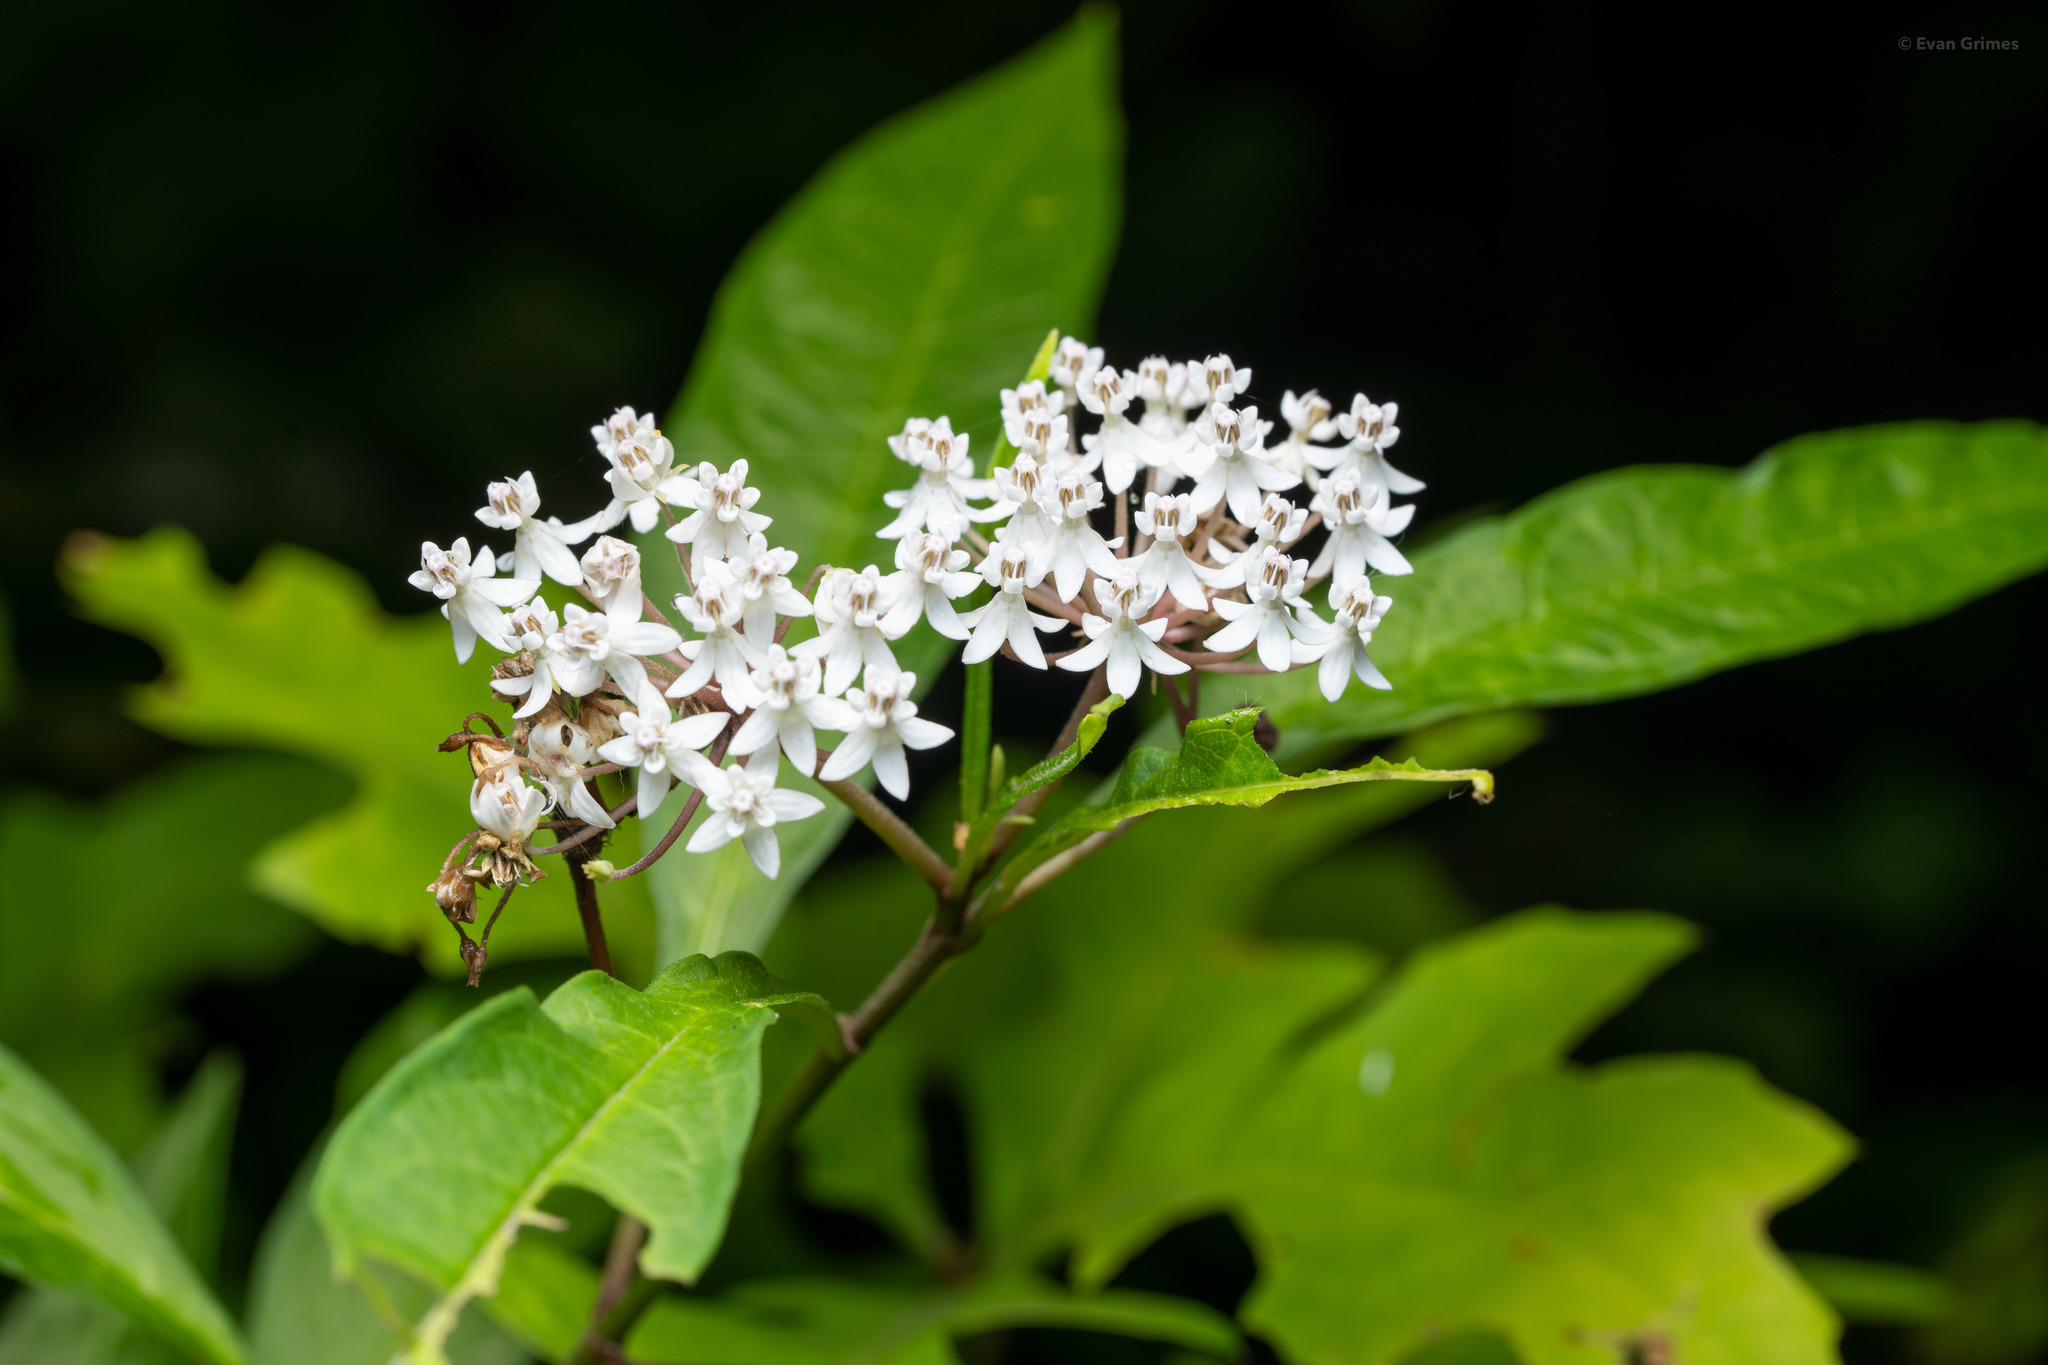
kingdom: Plantae
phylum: Tracheophyta
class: Magnoliopsida
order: Gentianales
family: Apocynaceae
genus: Asclepias
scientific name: Asclepias perennis
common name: Smooth-seed milkweed
